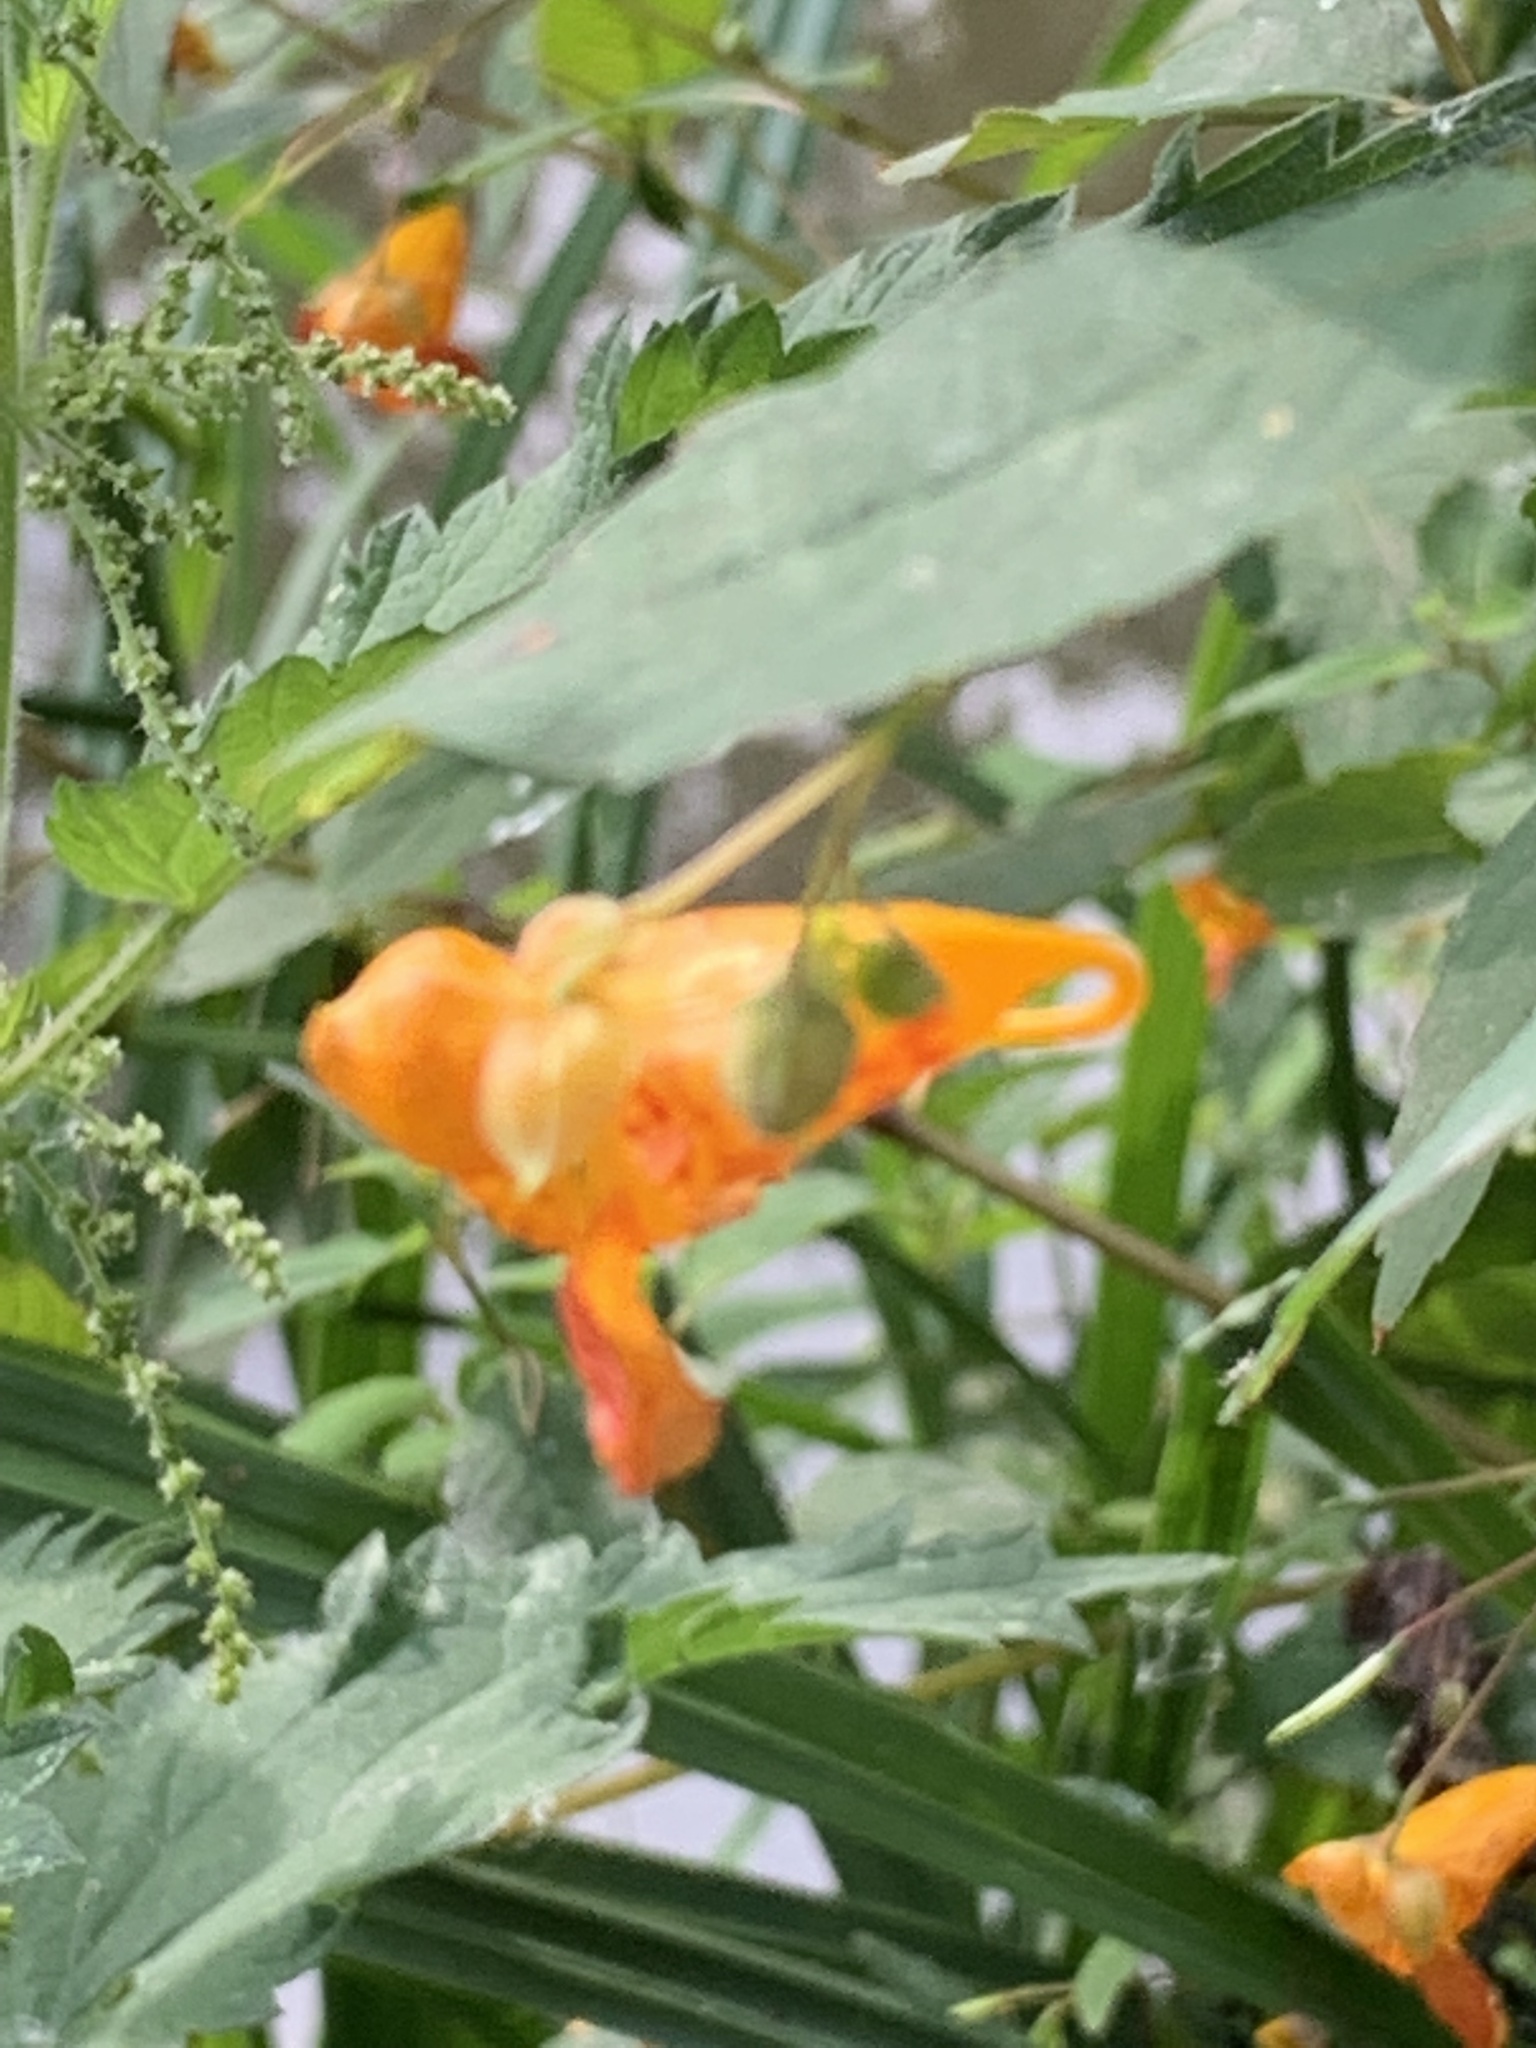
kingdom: Plantae
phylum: Tracheophyta
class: Magnoliopsida
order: Ericales
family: Balsaminaceae
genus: Impatiens
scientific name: Impatiens capensis
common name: Orange balsam
